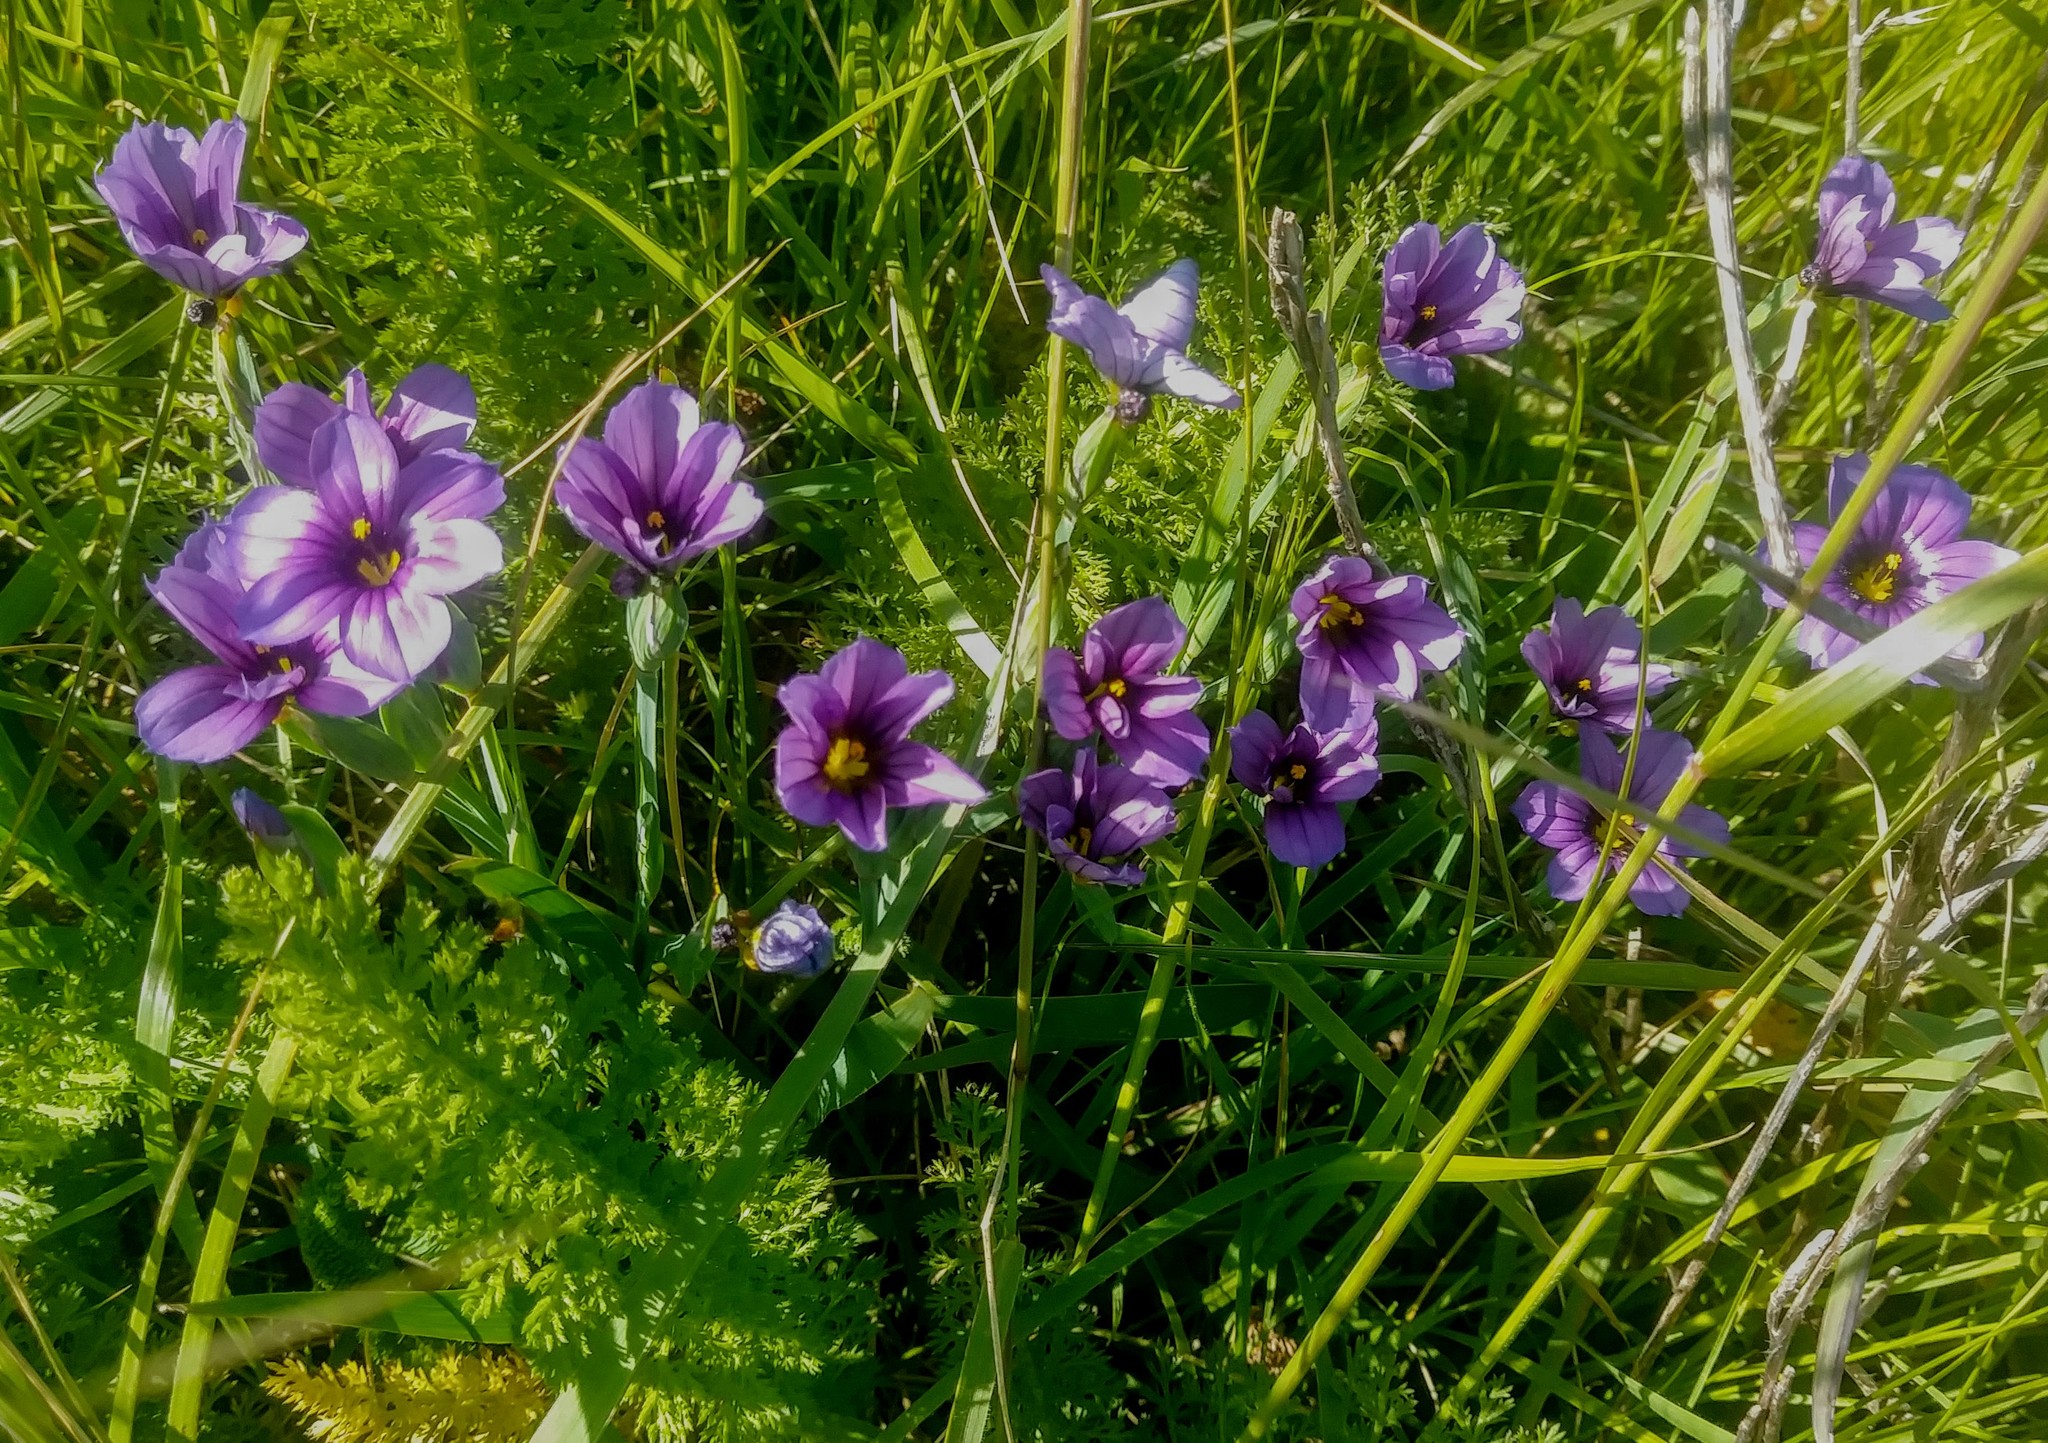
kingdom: Plantae
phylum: Tracheophyta
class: Liliopsida
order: Asparagales
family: Iridaceae
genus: Sisyrinchium
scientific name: Sisyrinchium bellum
